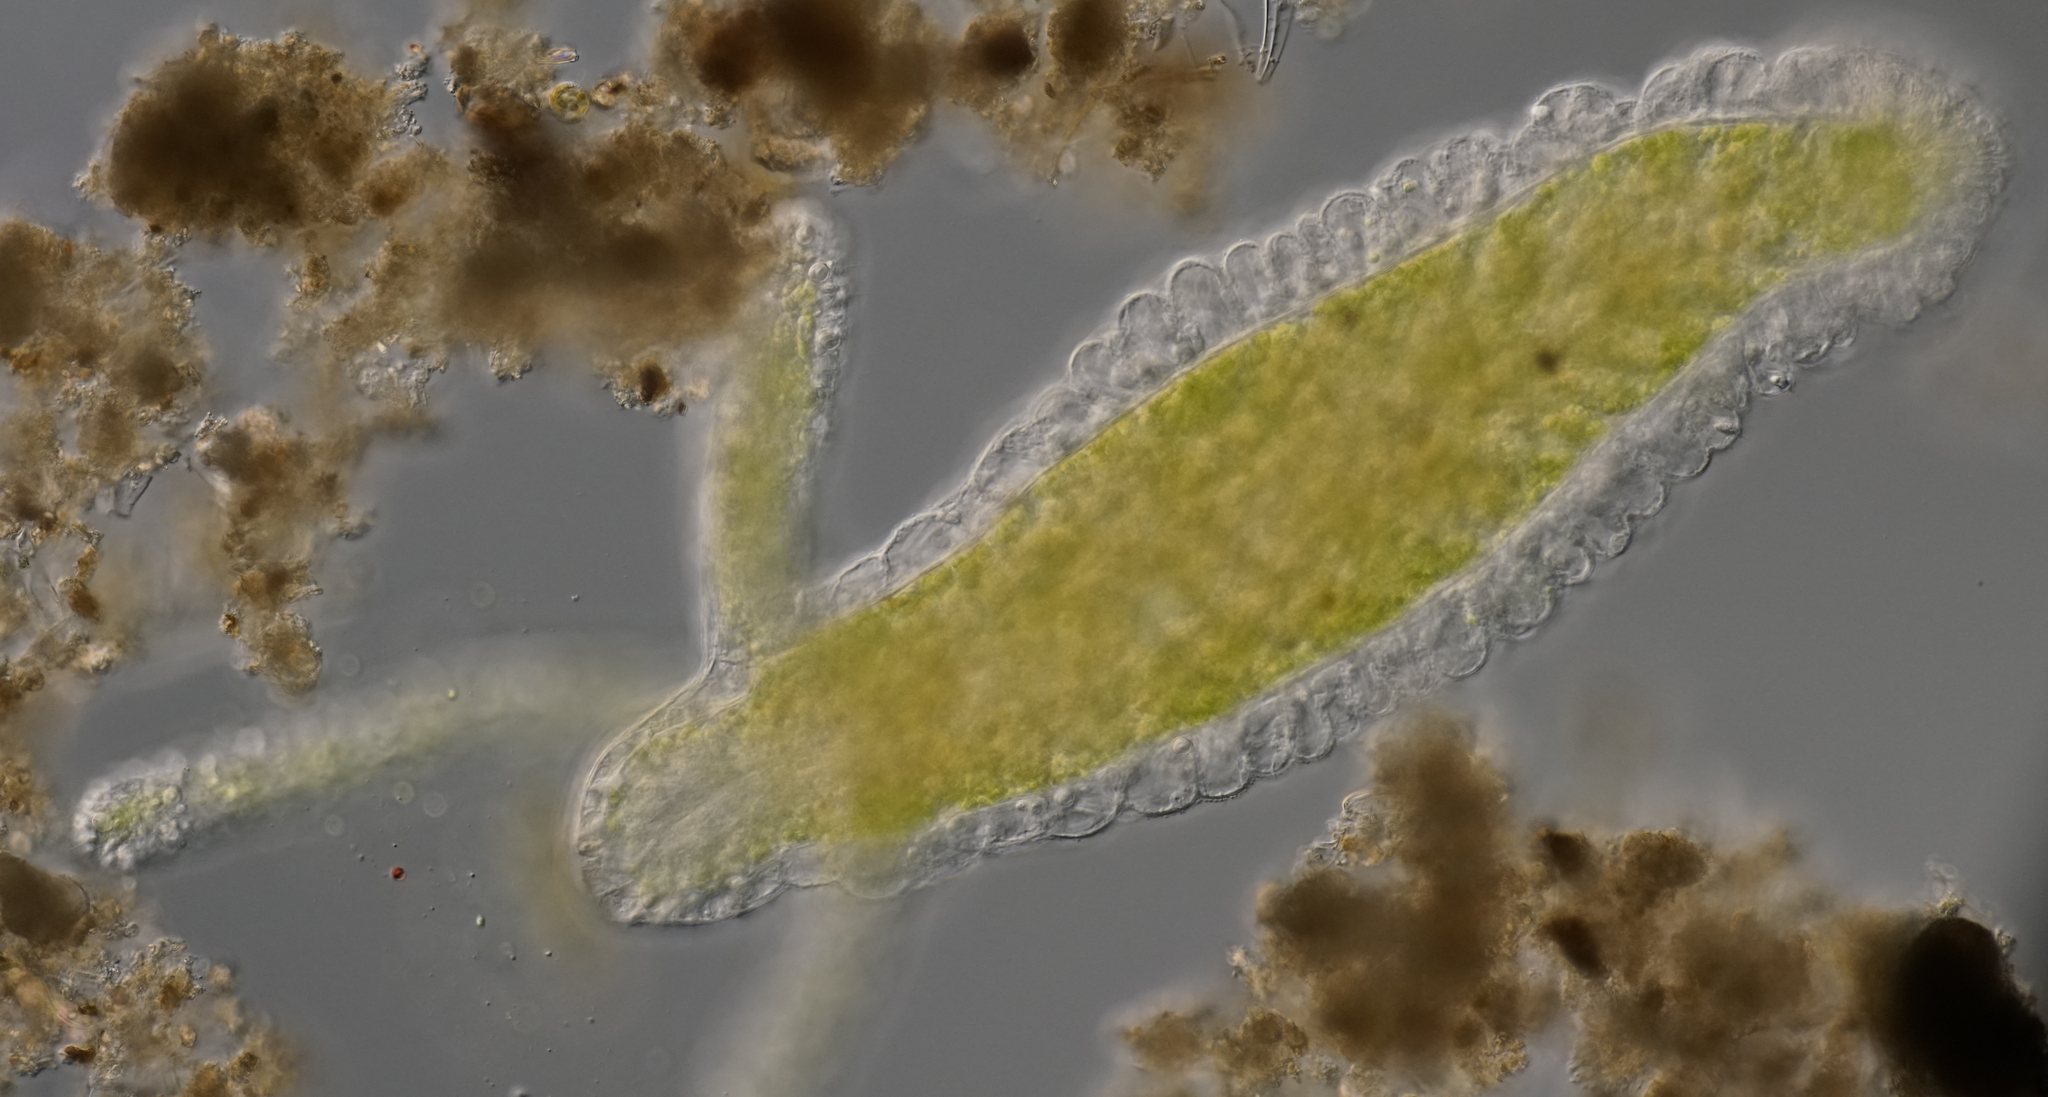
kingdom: Animalia
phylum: Cnidaria
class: Hydrozoa
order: Anthoathecata
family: Hydridae
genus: Hydra
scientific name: Hydra viridissima
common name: Green hydra
